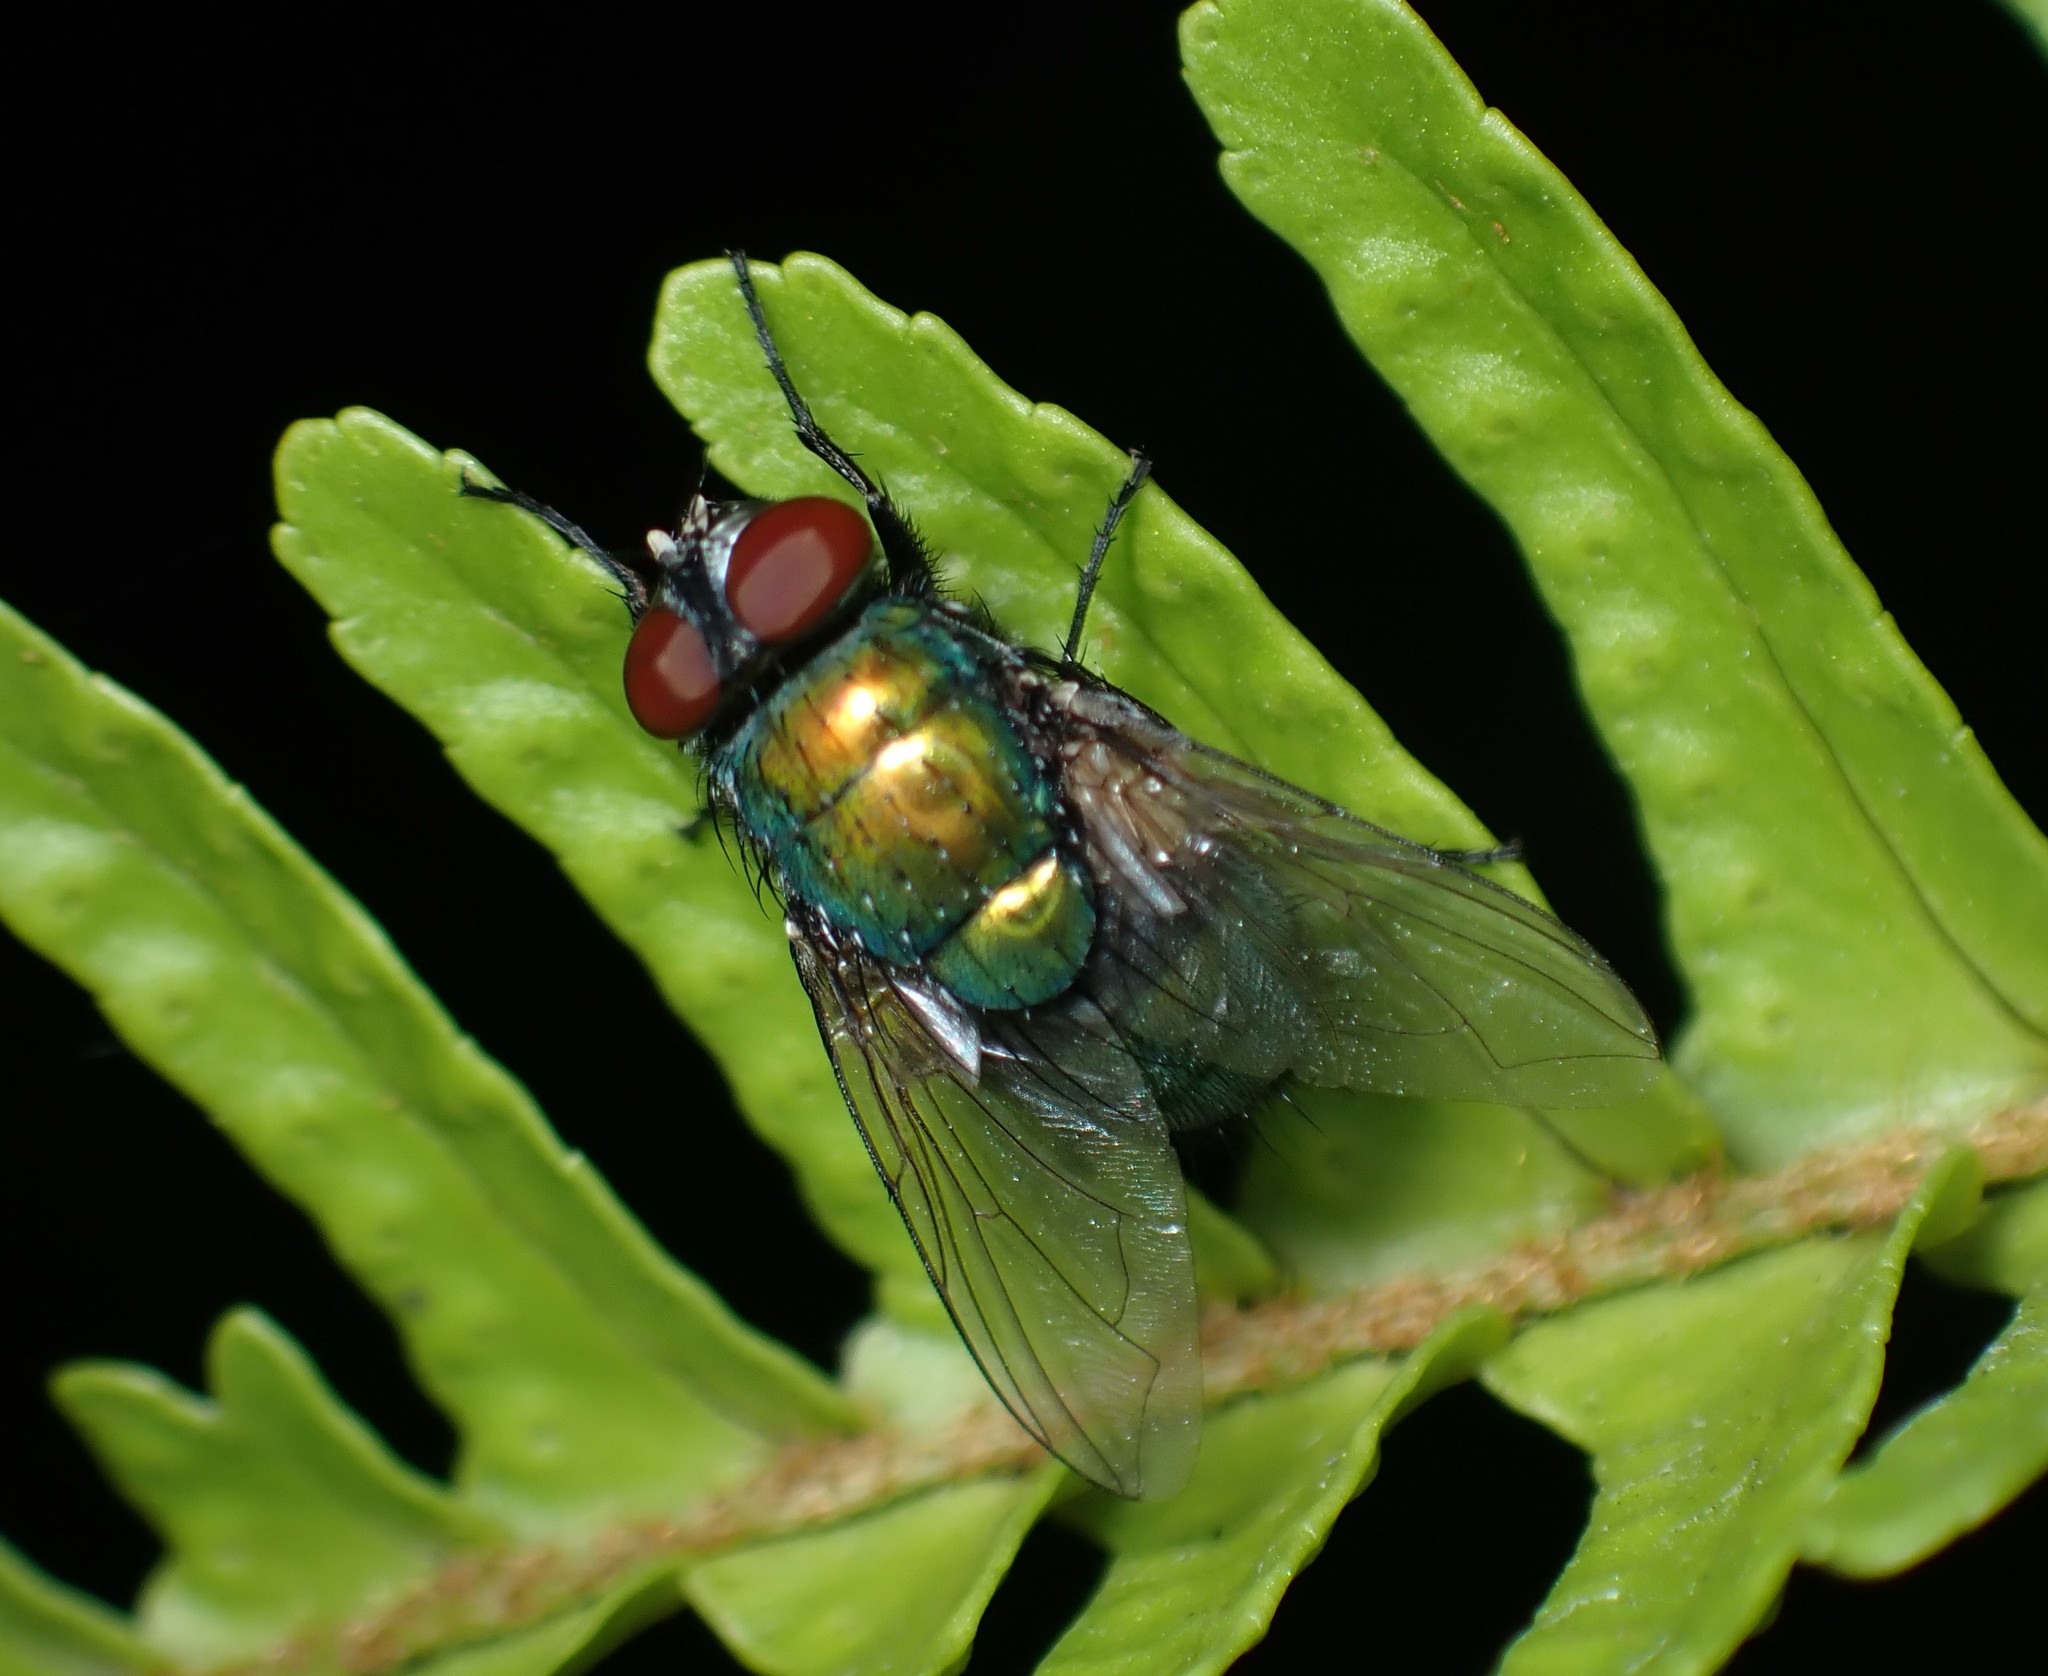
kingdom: Animalia
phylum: Arthropoda
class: Insecta
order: Diptera
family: Calliphoridae
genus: Lucilia
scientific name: Lucilia sericata
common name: Blow fly
